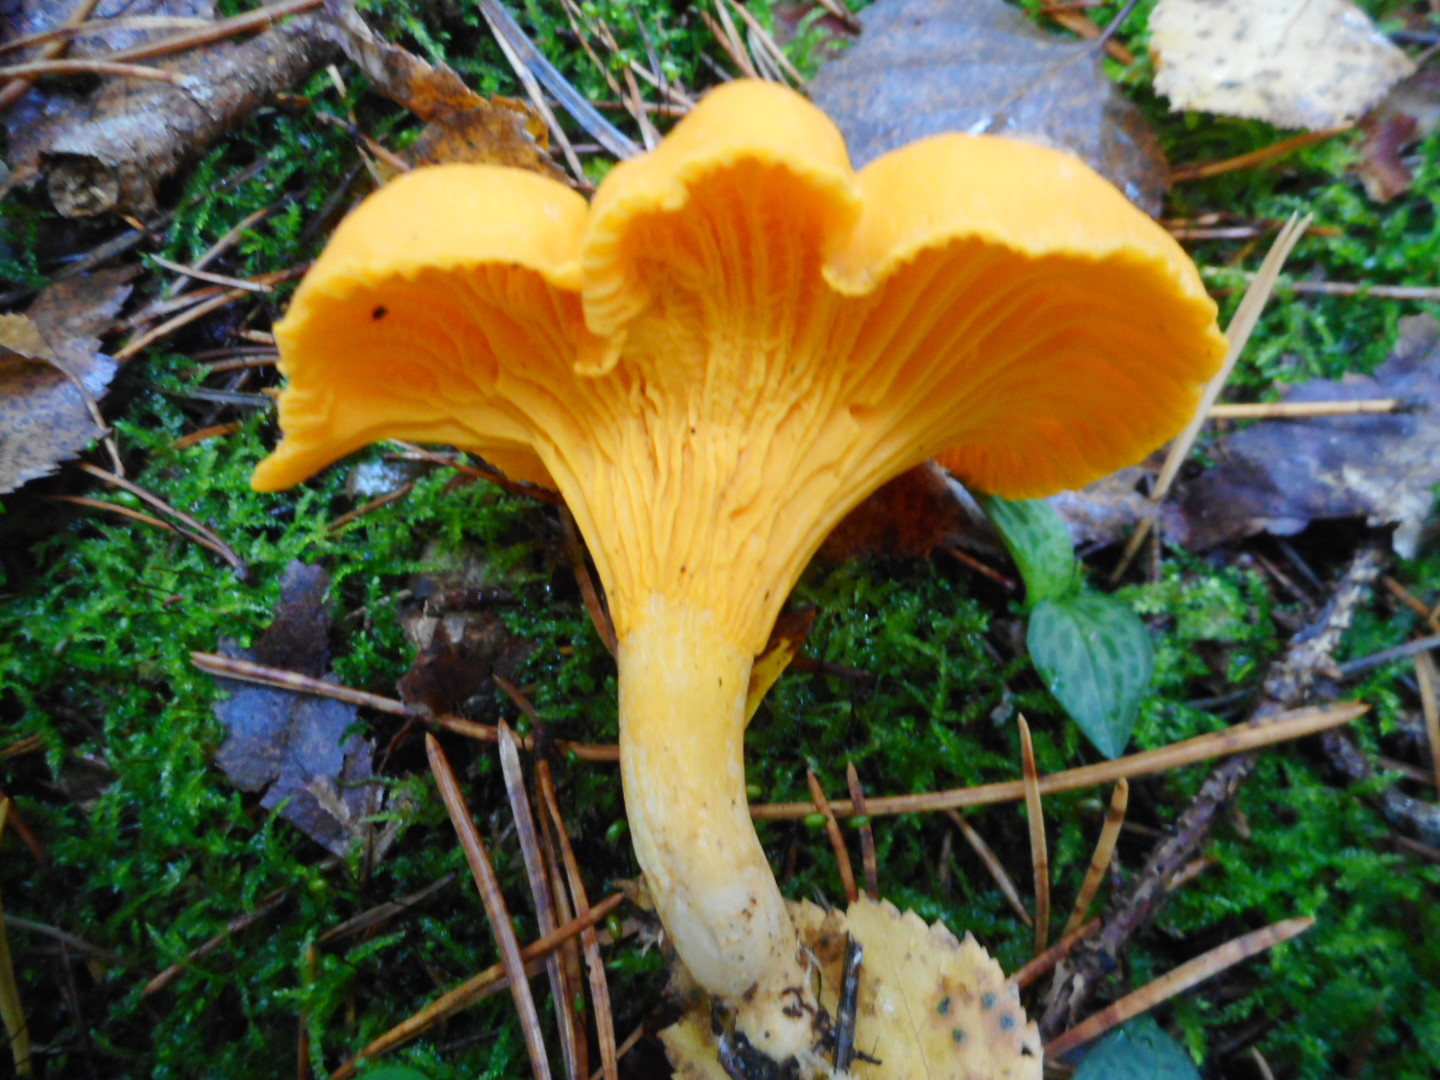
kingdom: Fungi
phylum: Basidiomycota
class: Agaricomycetes
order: Cantharellales
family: Hydnaceae
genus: Cantharellus
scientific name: Cantharellus cibarius
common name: Chanterelle
